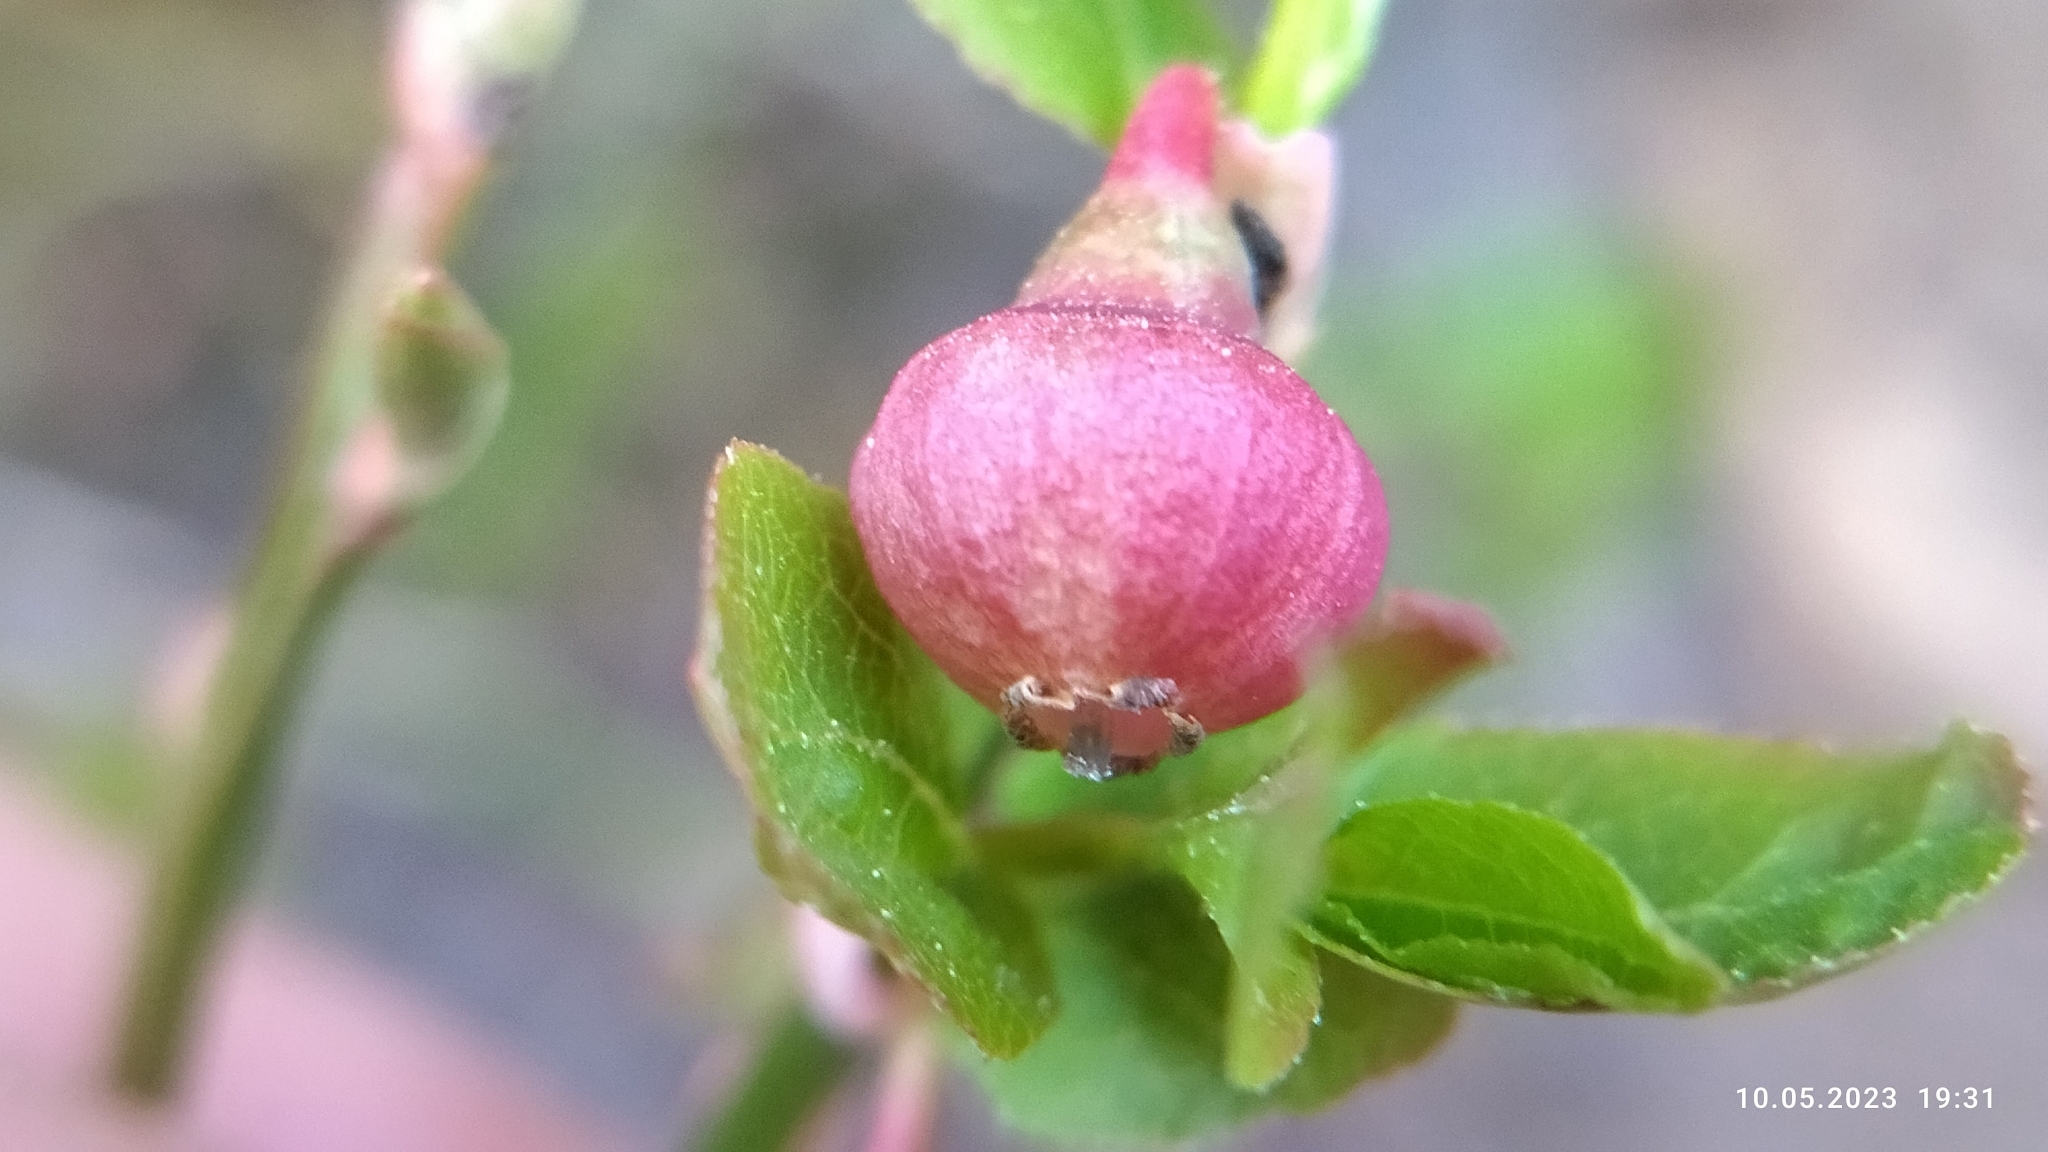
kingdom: Plantae
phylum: Tracheophyta
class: Magnoliopsida
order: Ericales
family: Ericaceae
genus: Vaccinium
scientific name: Vaccinium myrtillus
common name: Bilberry
